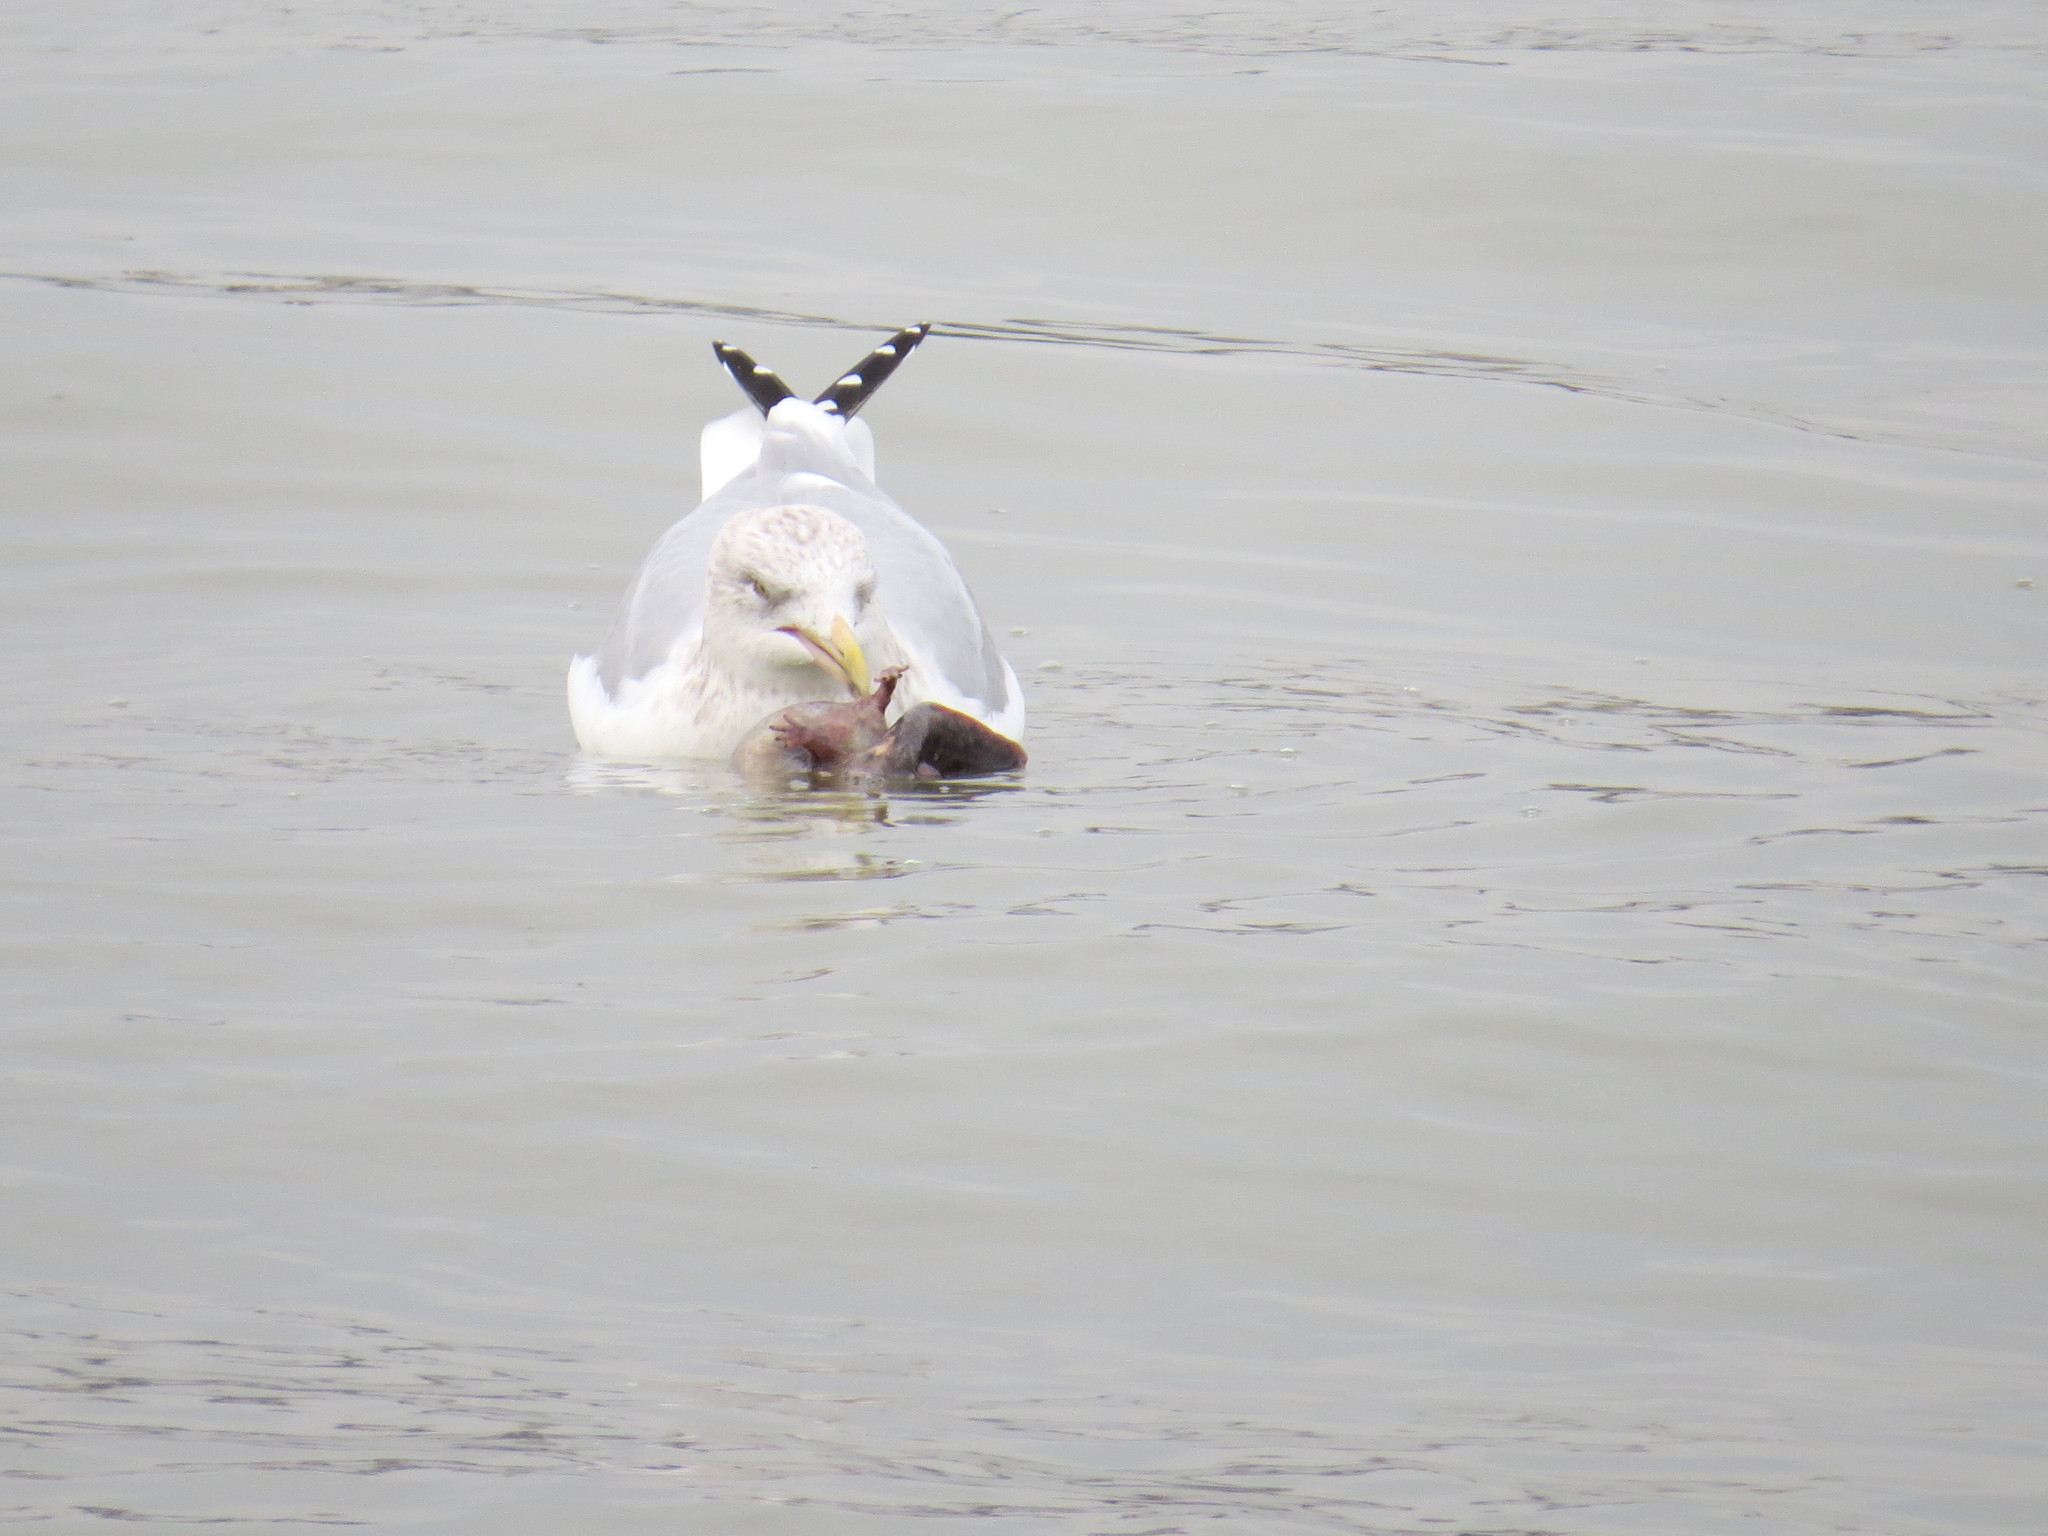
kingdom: Animalia
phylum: Chordata
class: Aves
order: Charadriiformes
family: Laridae
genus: Larus
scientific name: Larus argentatus
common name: Herring gull
